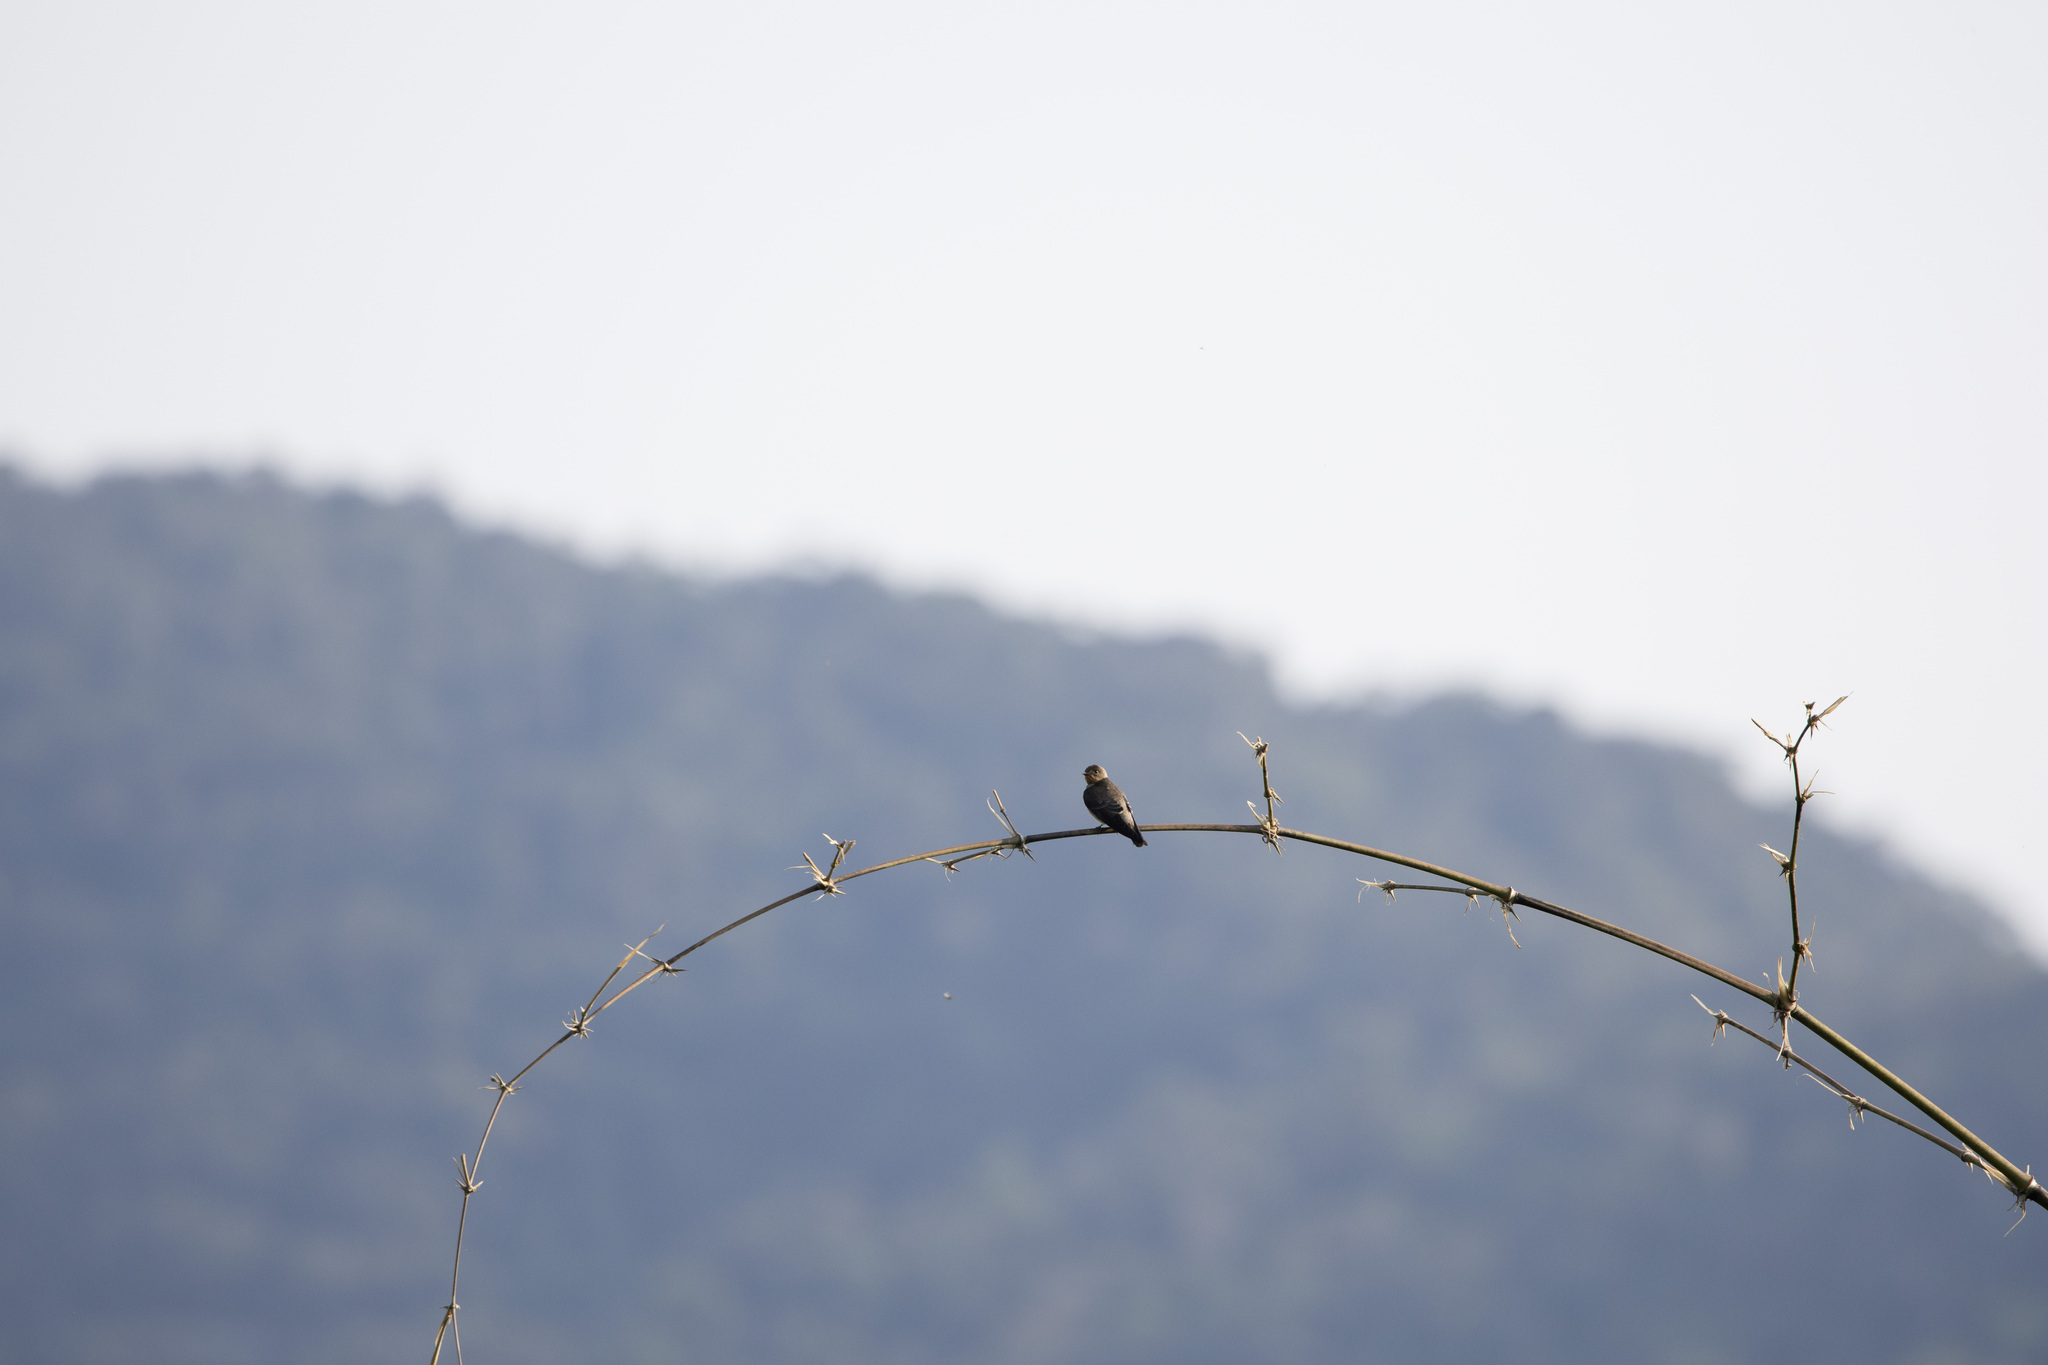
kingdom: Animalia
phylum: Chordata
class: Aves
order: Passeriformes
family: Hirundinidae
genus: Stelgidopteryx
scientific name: Stelgidopteryx ruficollis
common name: Southern rough-winged swallow
